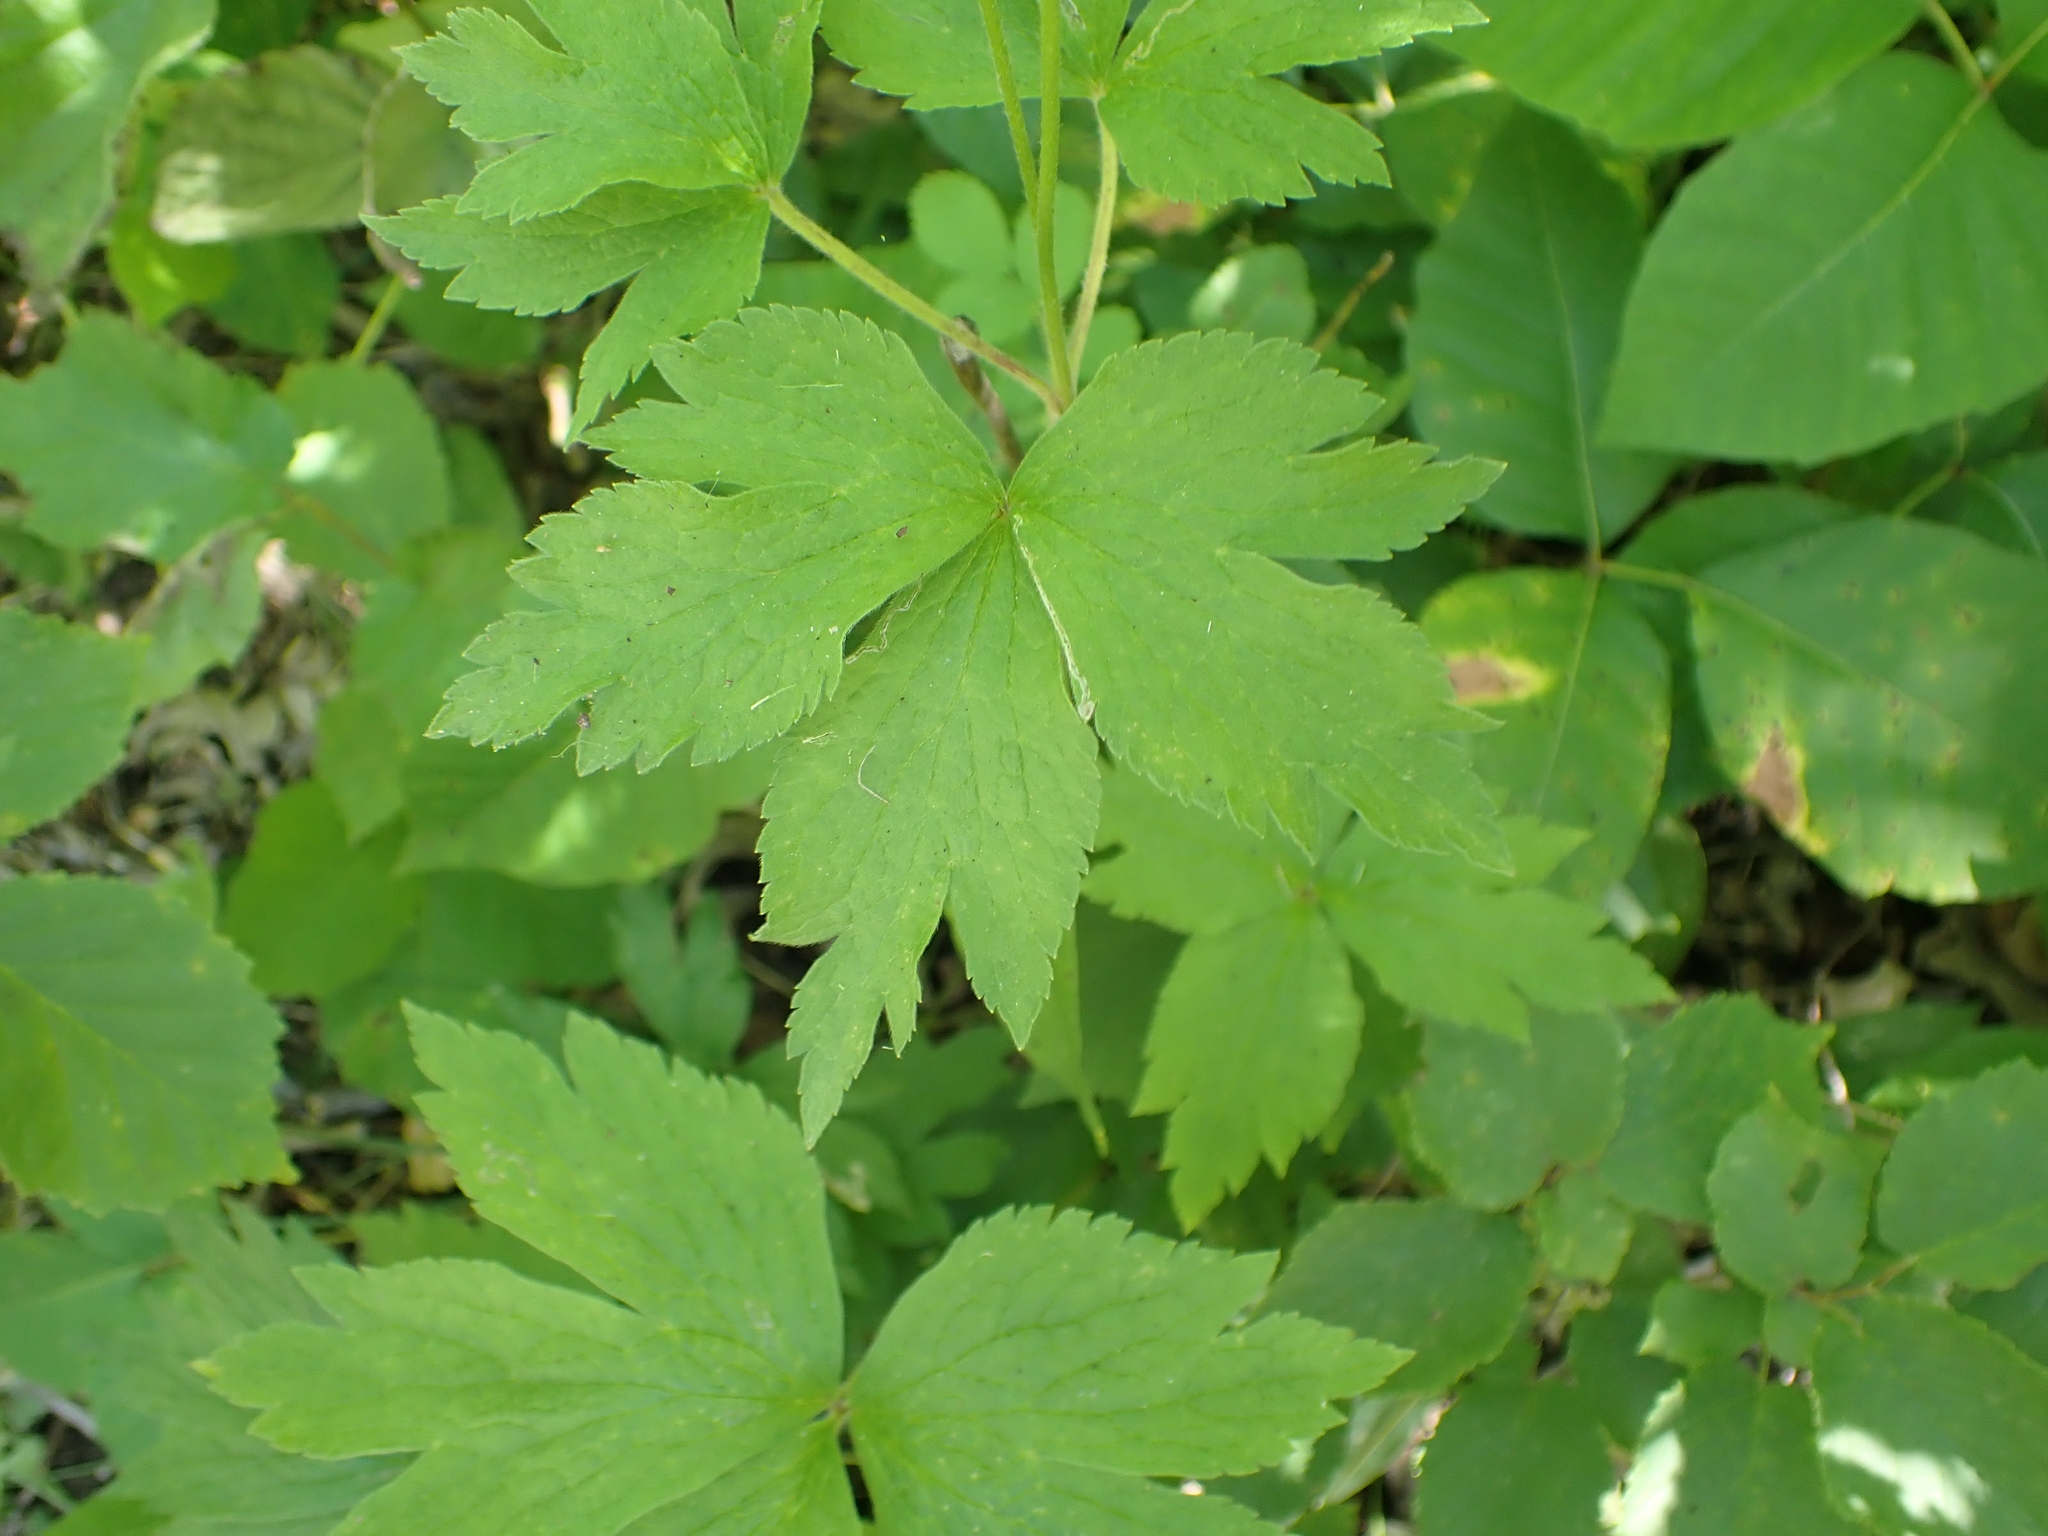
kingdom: Plantae
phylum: Tracheophyta
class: Magnoliopsida
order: Ranunculales
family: Ranunculaceae
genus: Anemone
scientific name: Anemone virginiana
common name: Tall anemone
